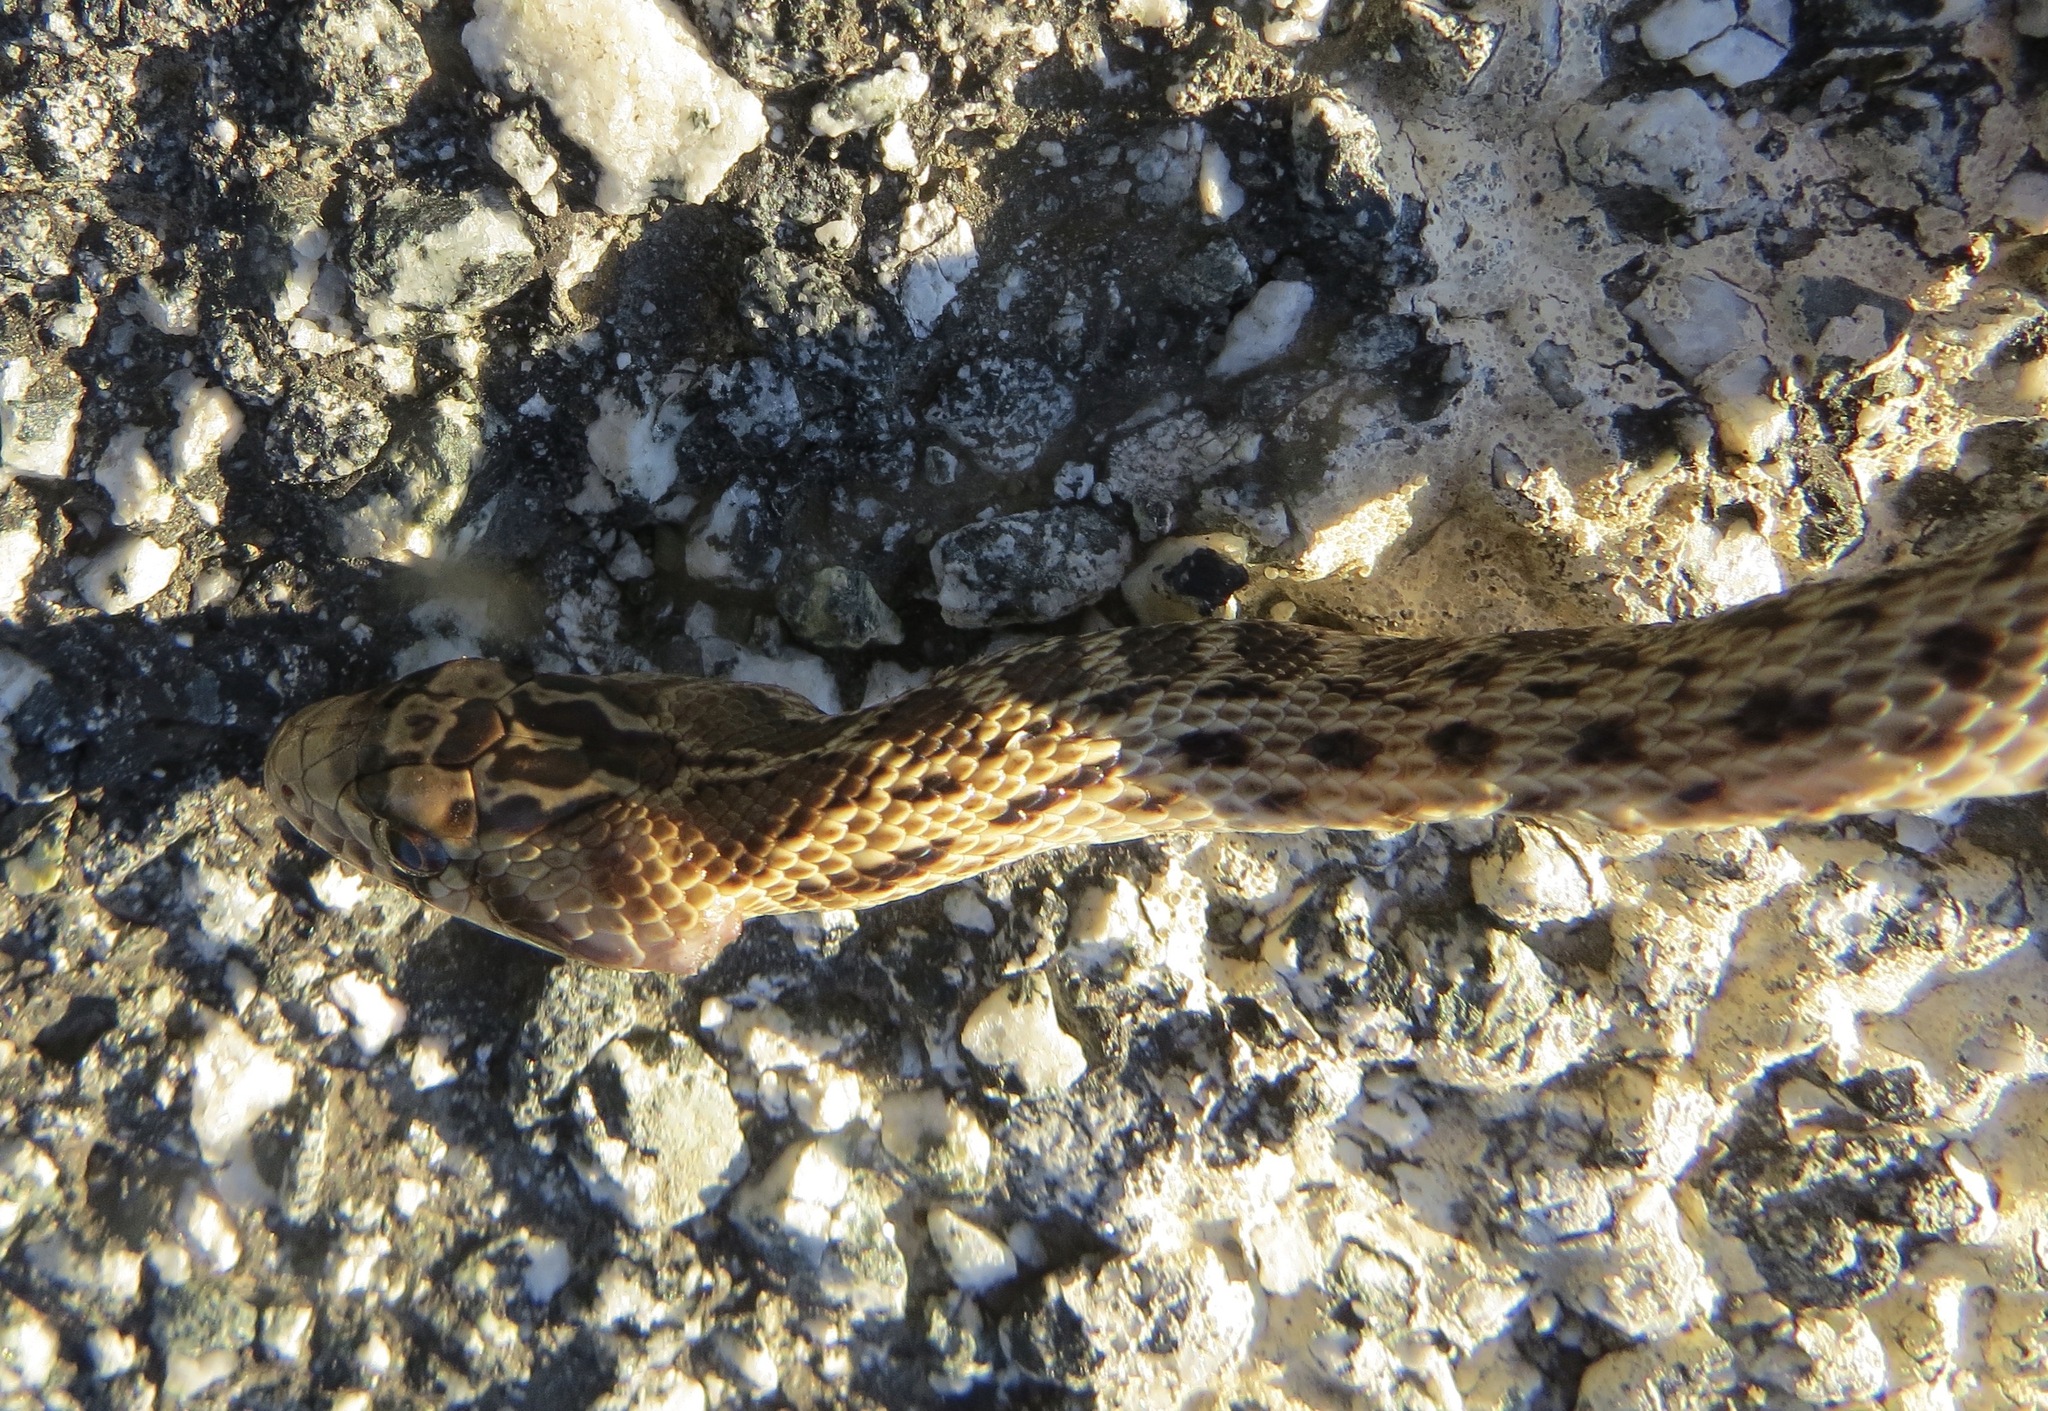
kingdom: Animalia
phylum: Chordata
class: Squamata
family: Colubridae
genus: Pituophis
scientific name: Pituophis catenifer
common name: Gopher snake
